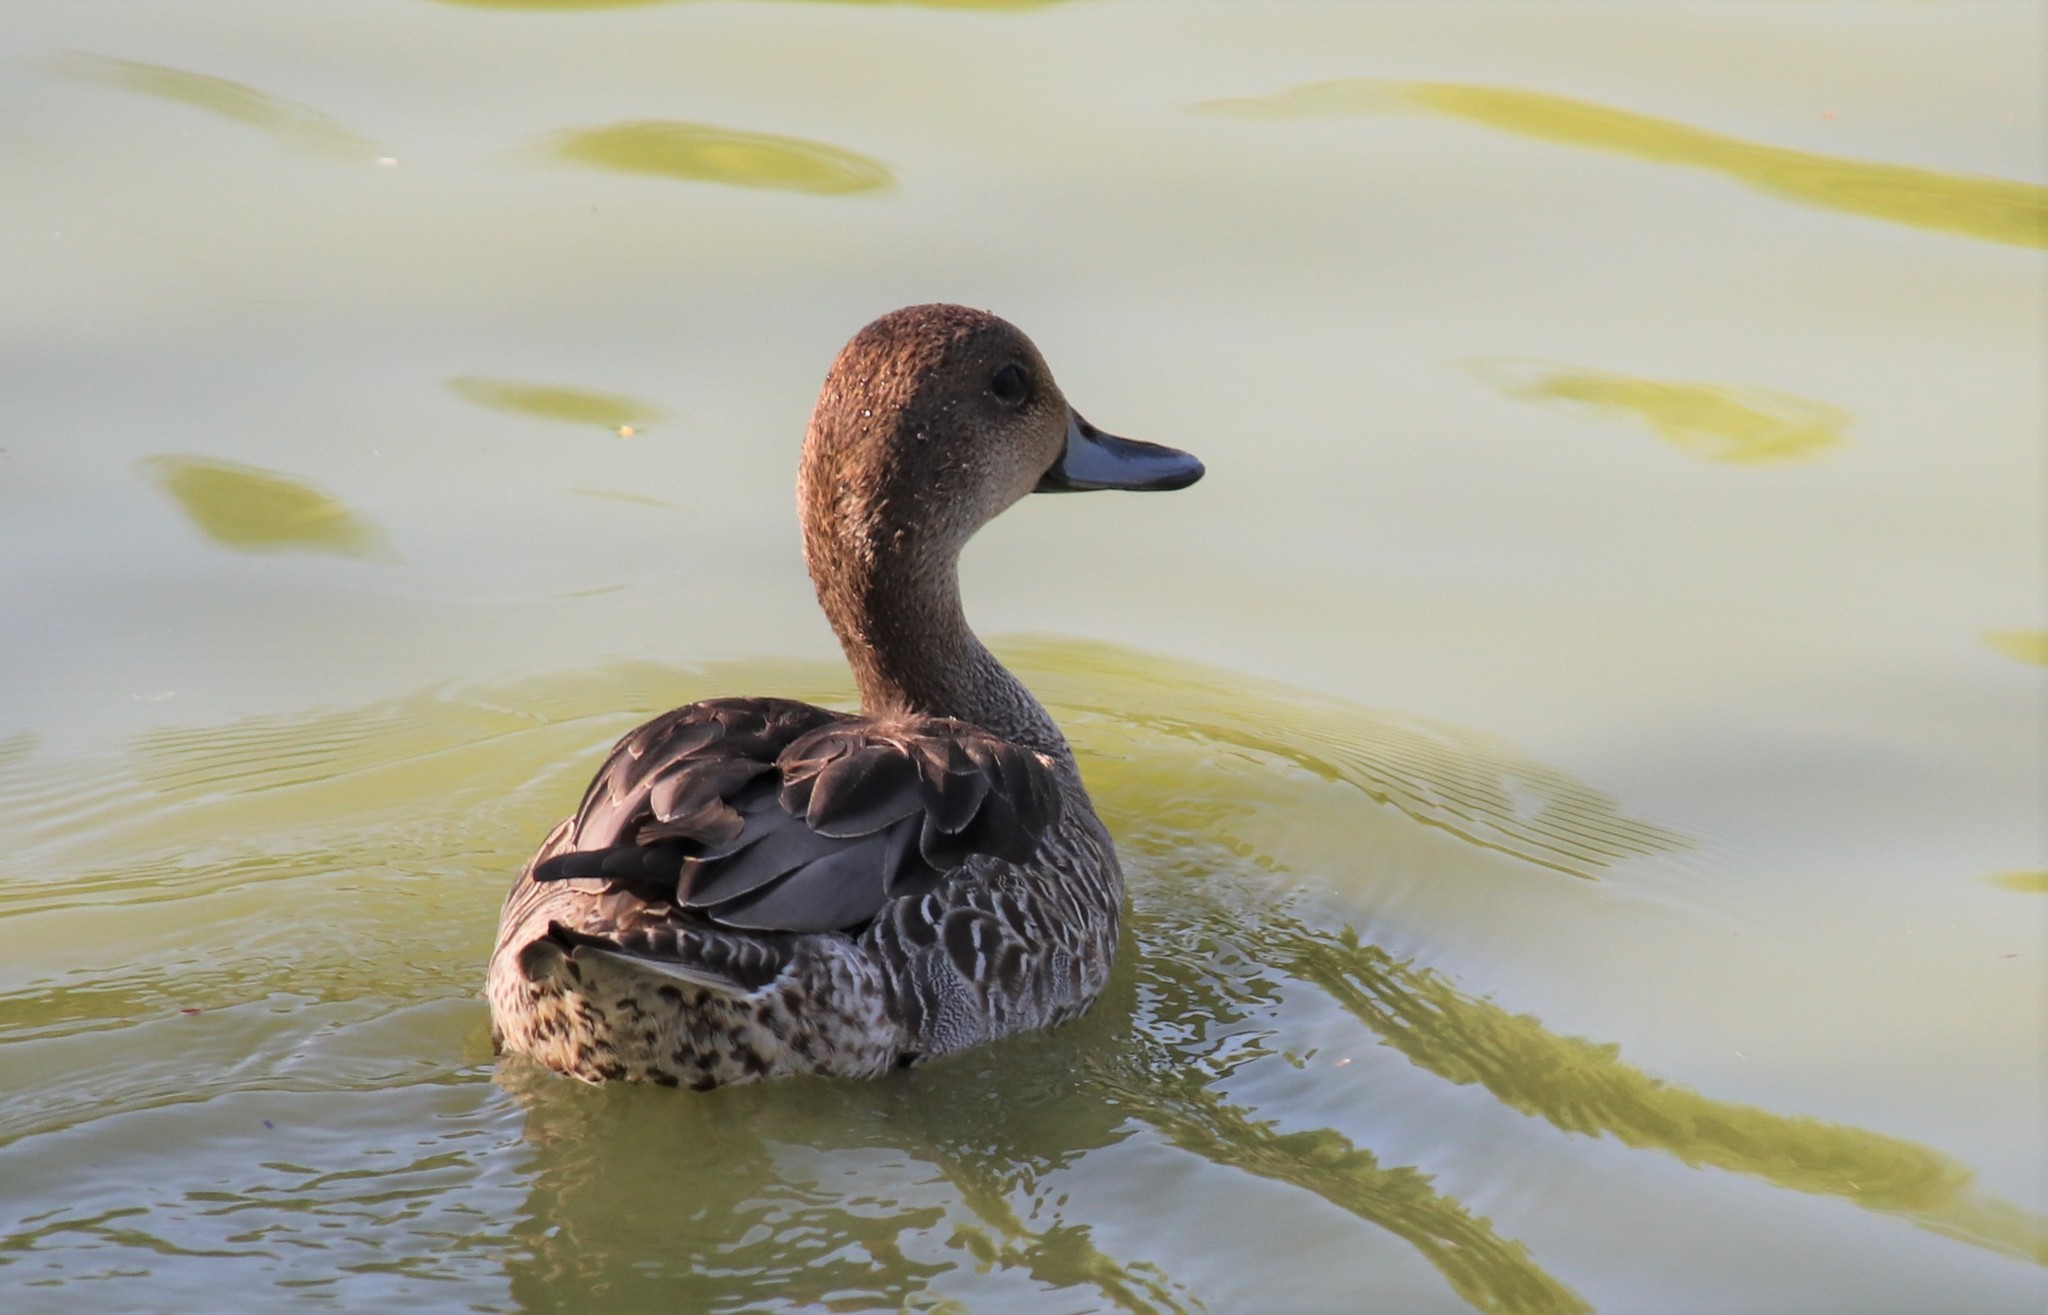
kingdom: Animalia
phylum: Chordata
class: Aves
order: Anseriformes
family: Anatidae
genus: Anas
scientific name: Anas acuta
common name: Northern pintail
